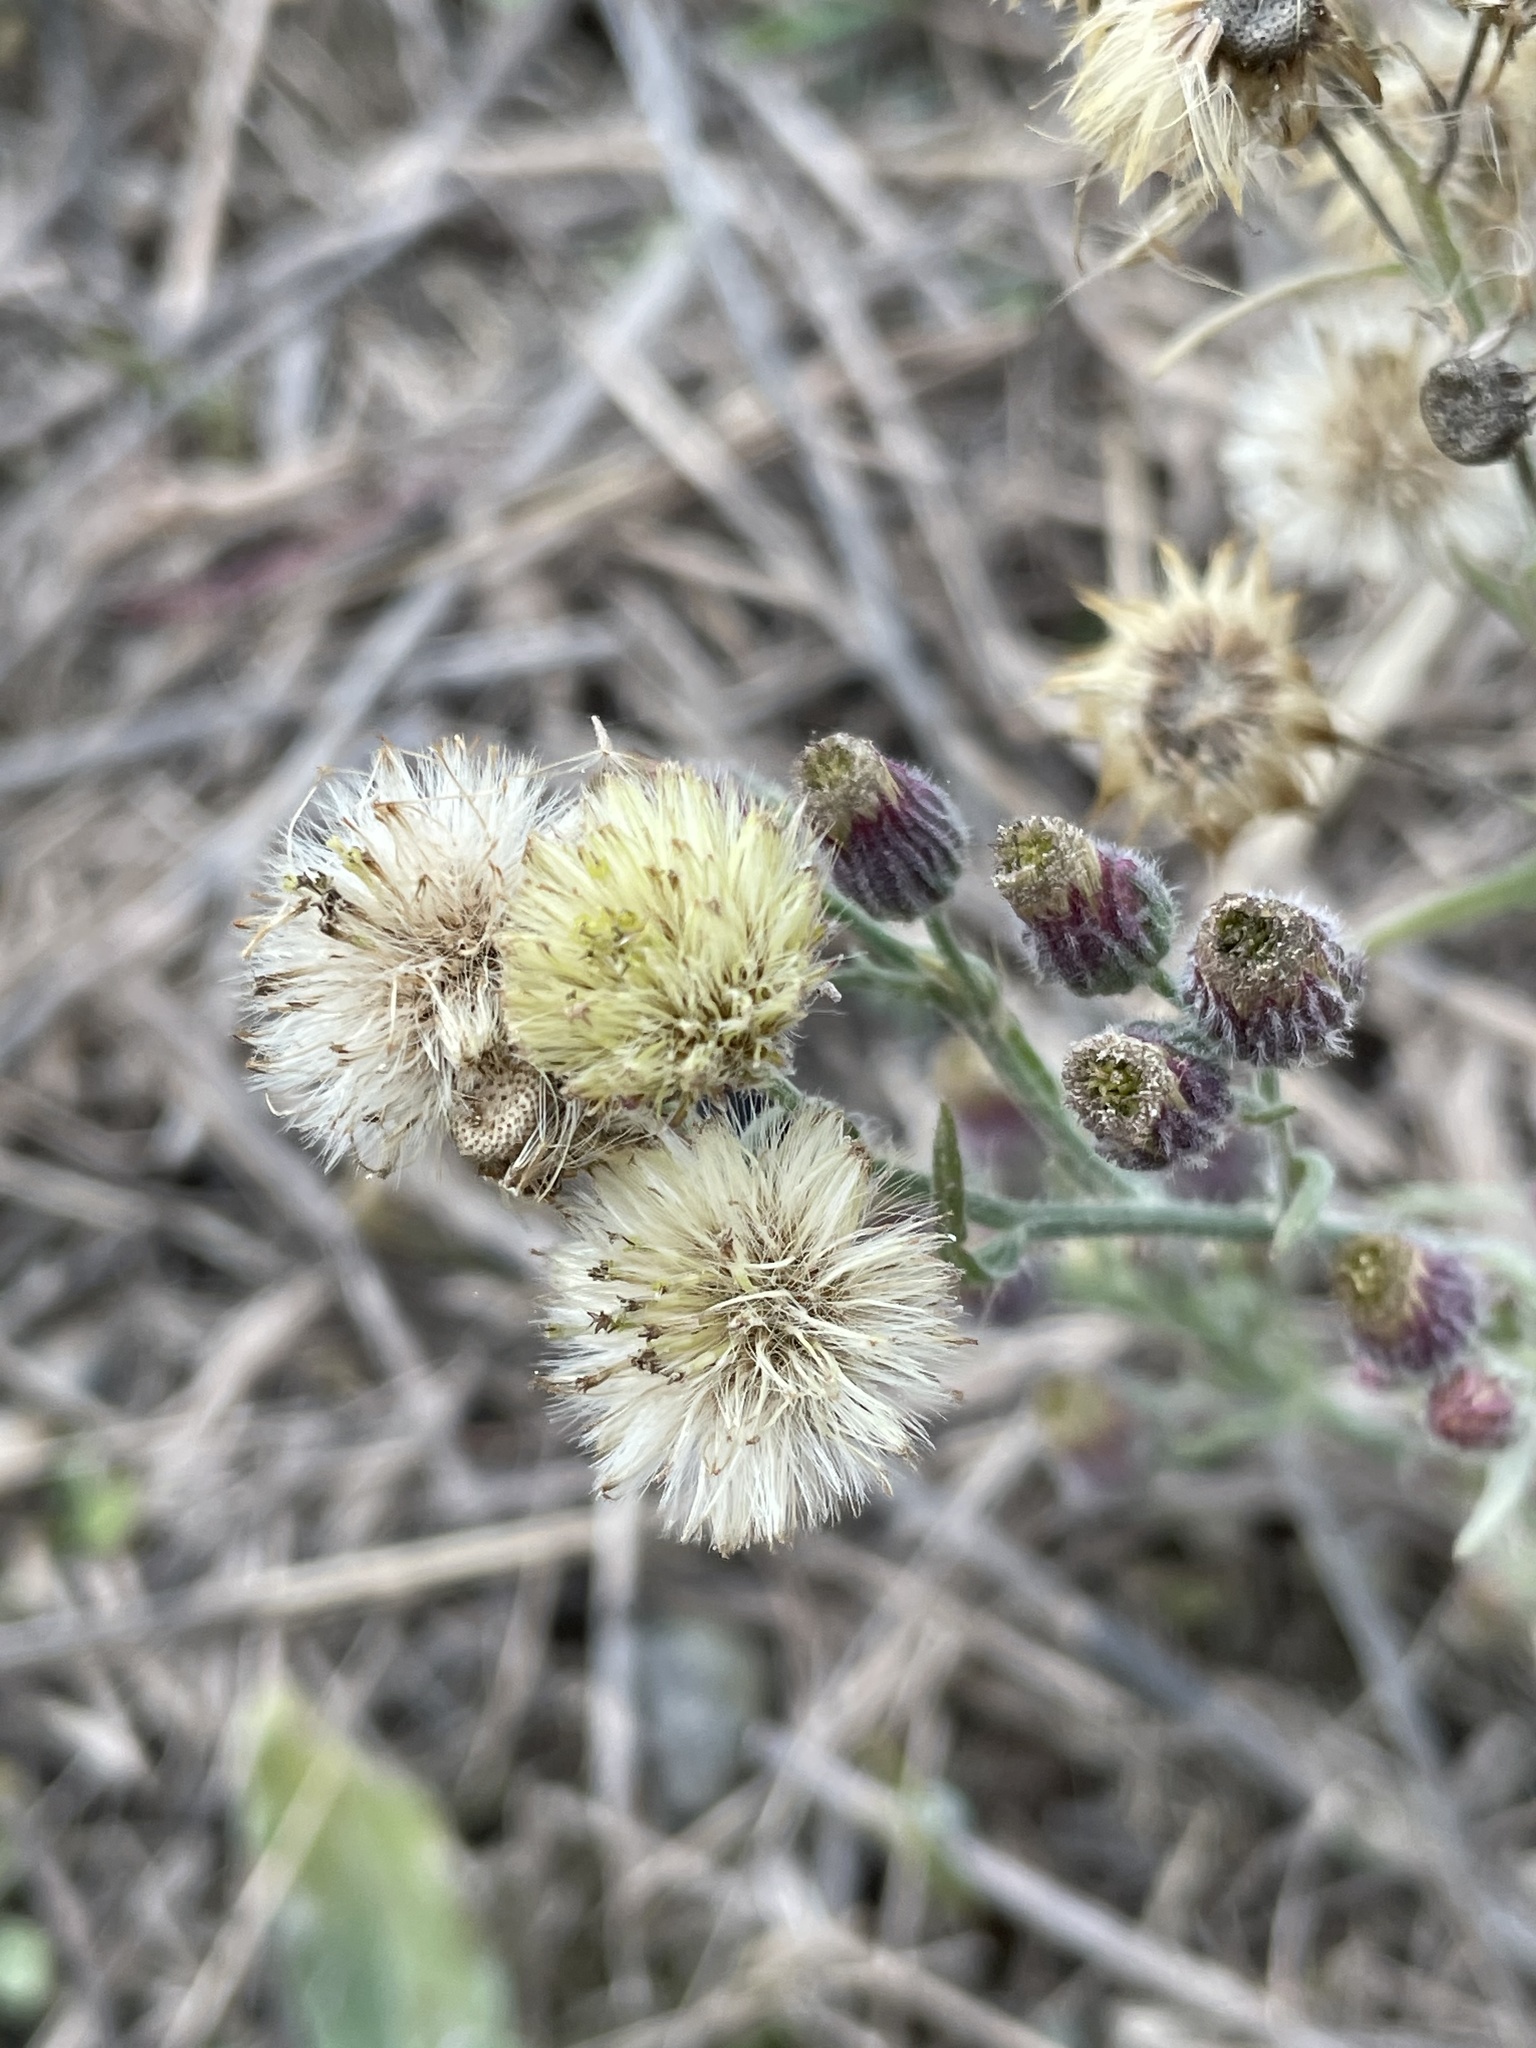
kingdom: Plantae
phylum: Tracheophyta
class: Magnoliopsida
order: Asterales
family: Asteraceae
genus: Erigeron
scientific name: Erigeron bonariensis
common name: Argentine fleabane
